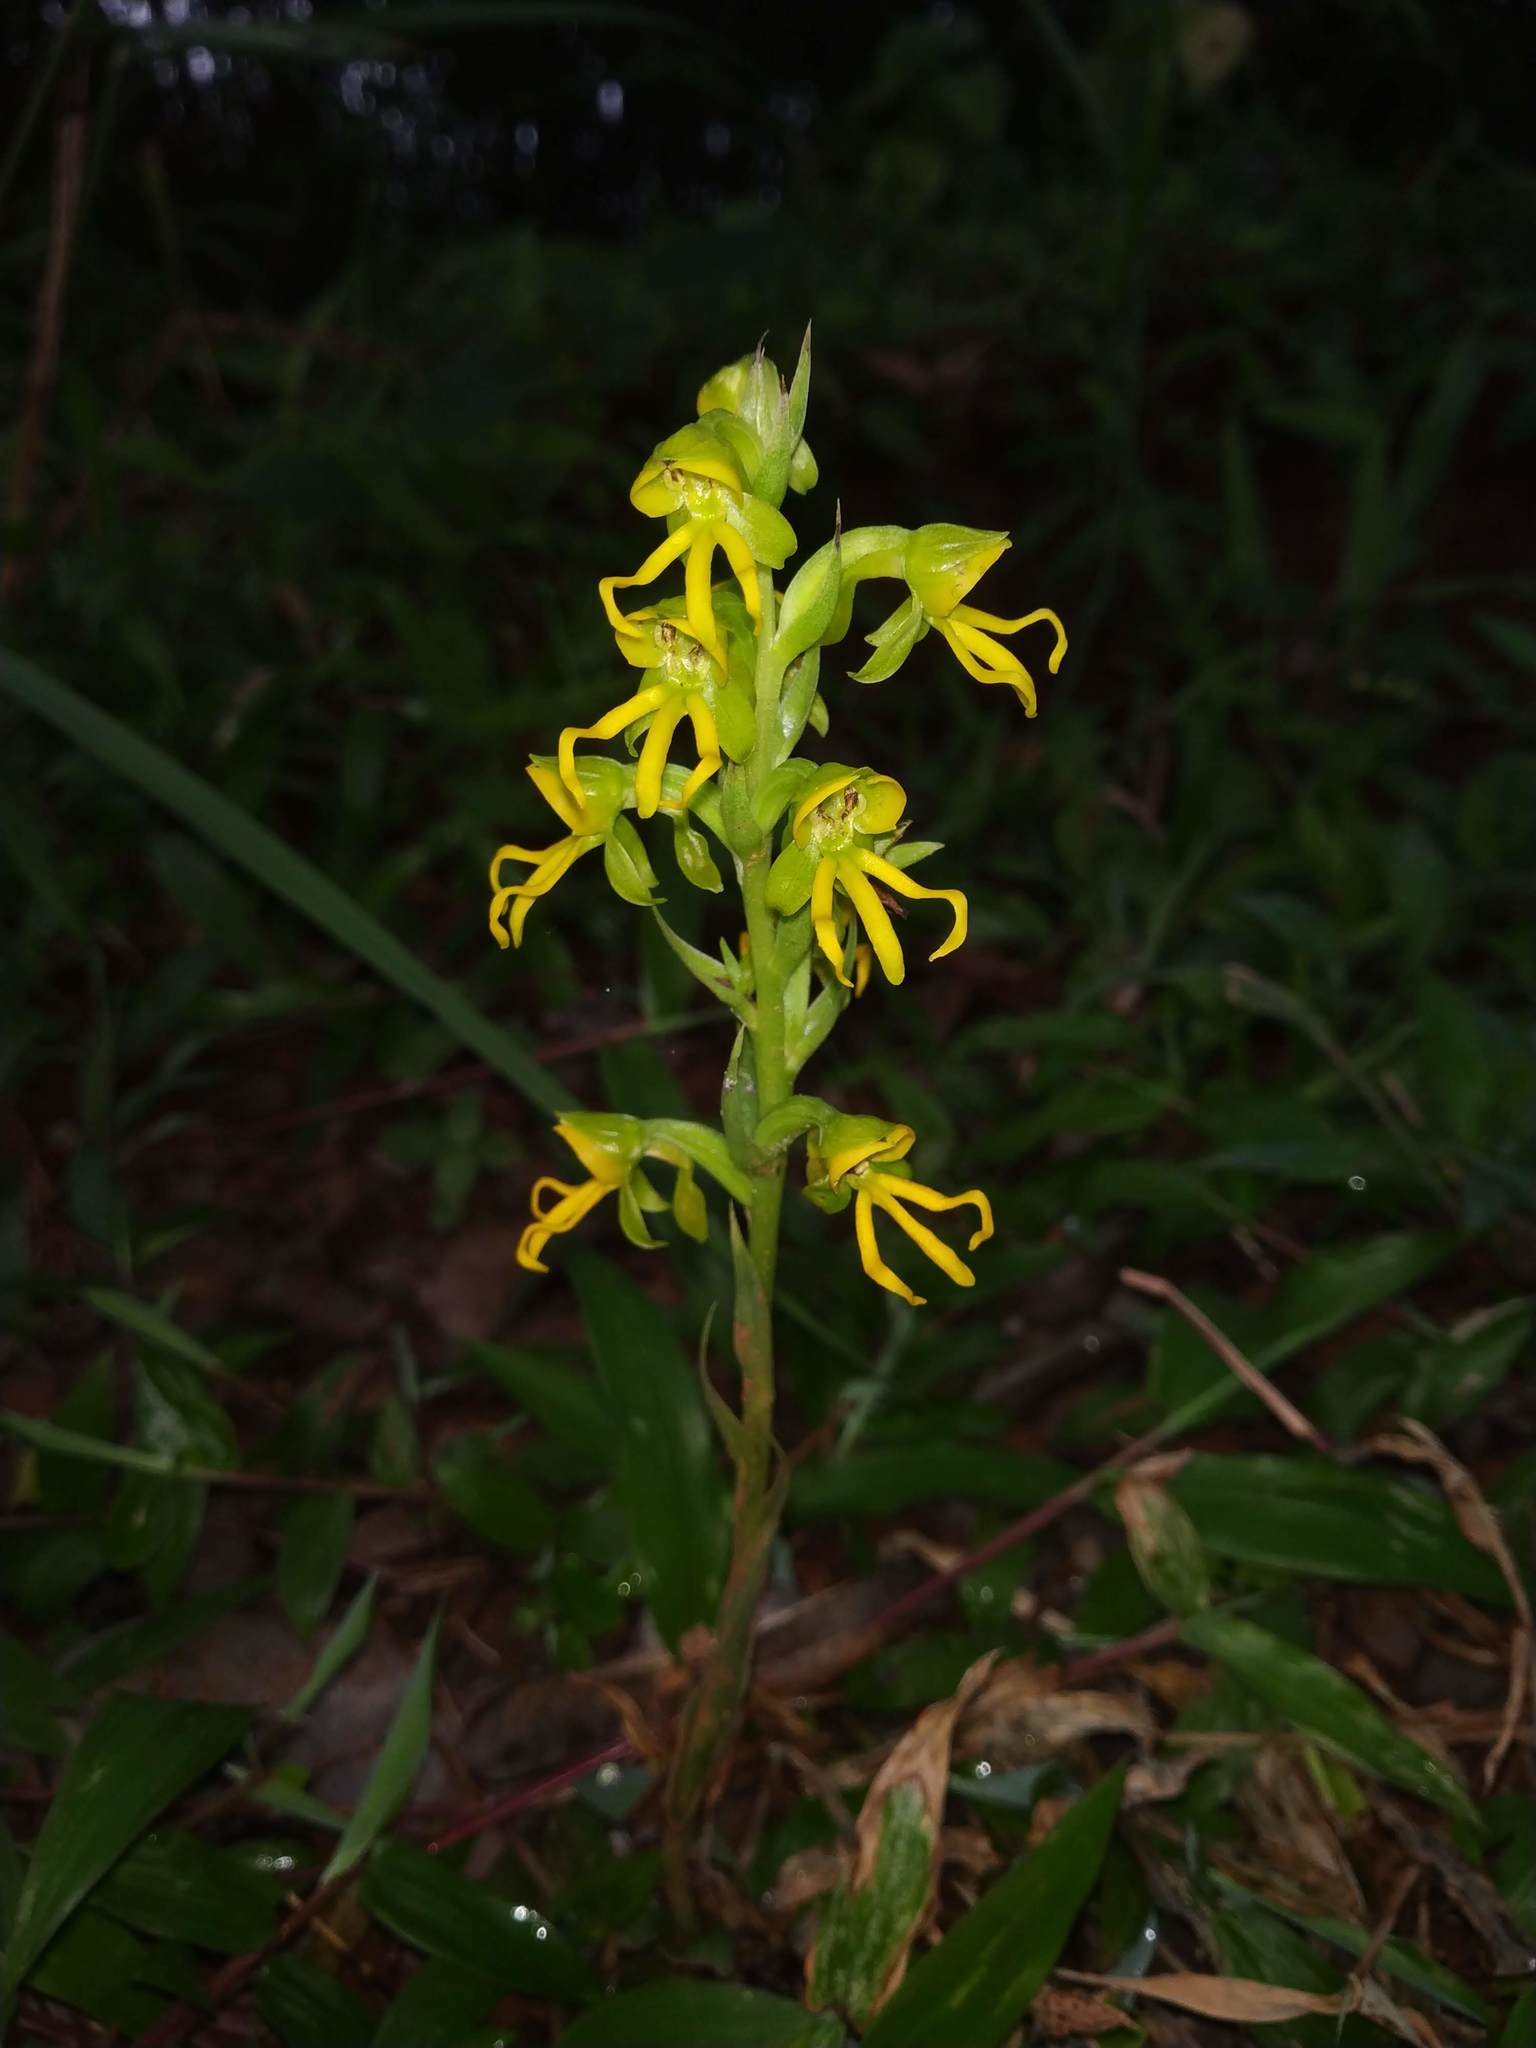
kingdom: Plantae
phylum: Tracheophyta
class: Liliopsida
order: Asparagales
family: Orchidaceae
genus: Habenaria
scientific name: Habenaria marginata
